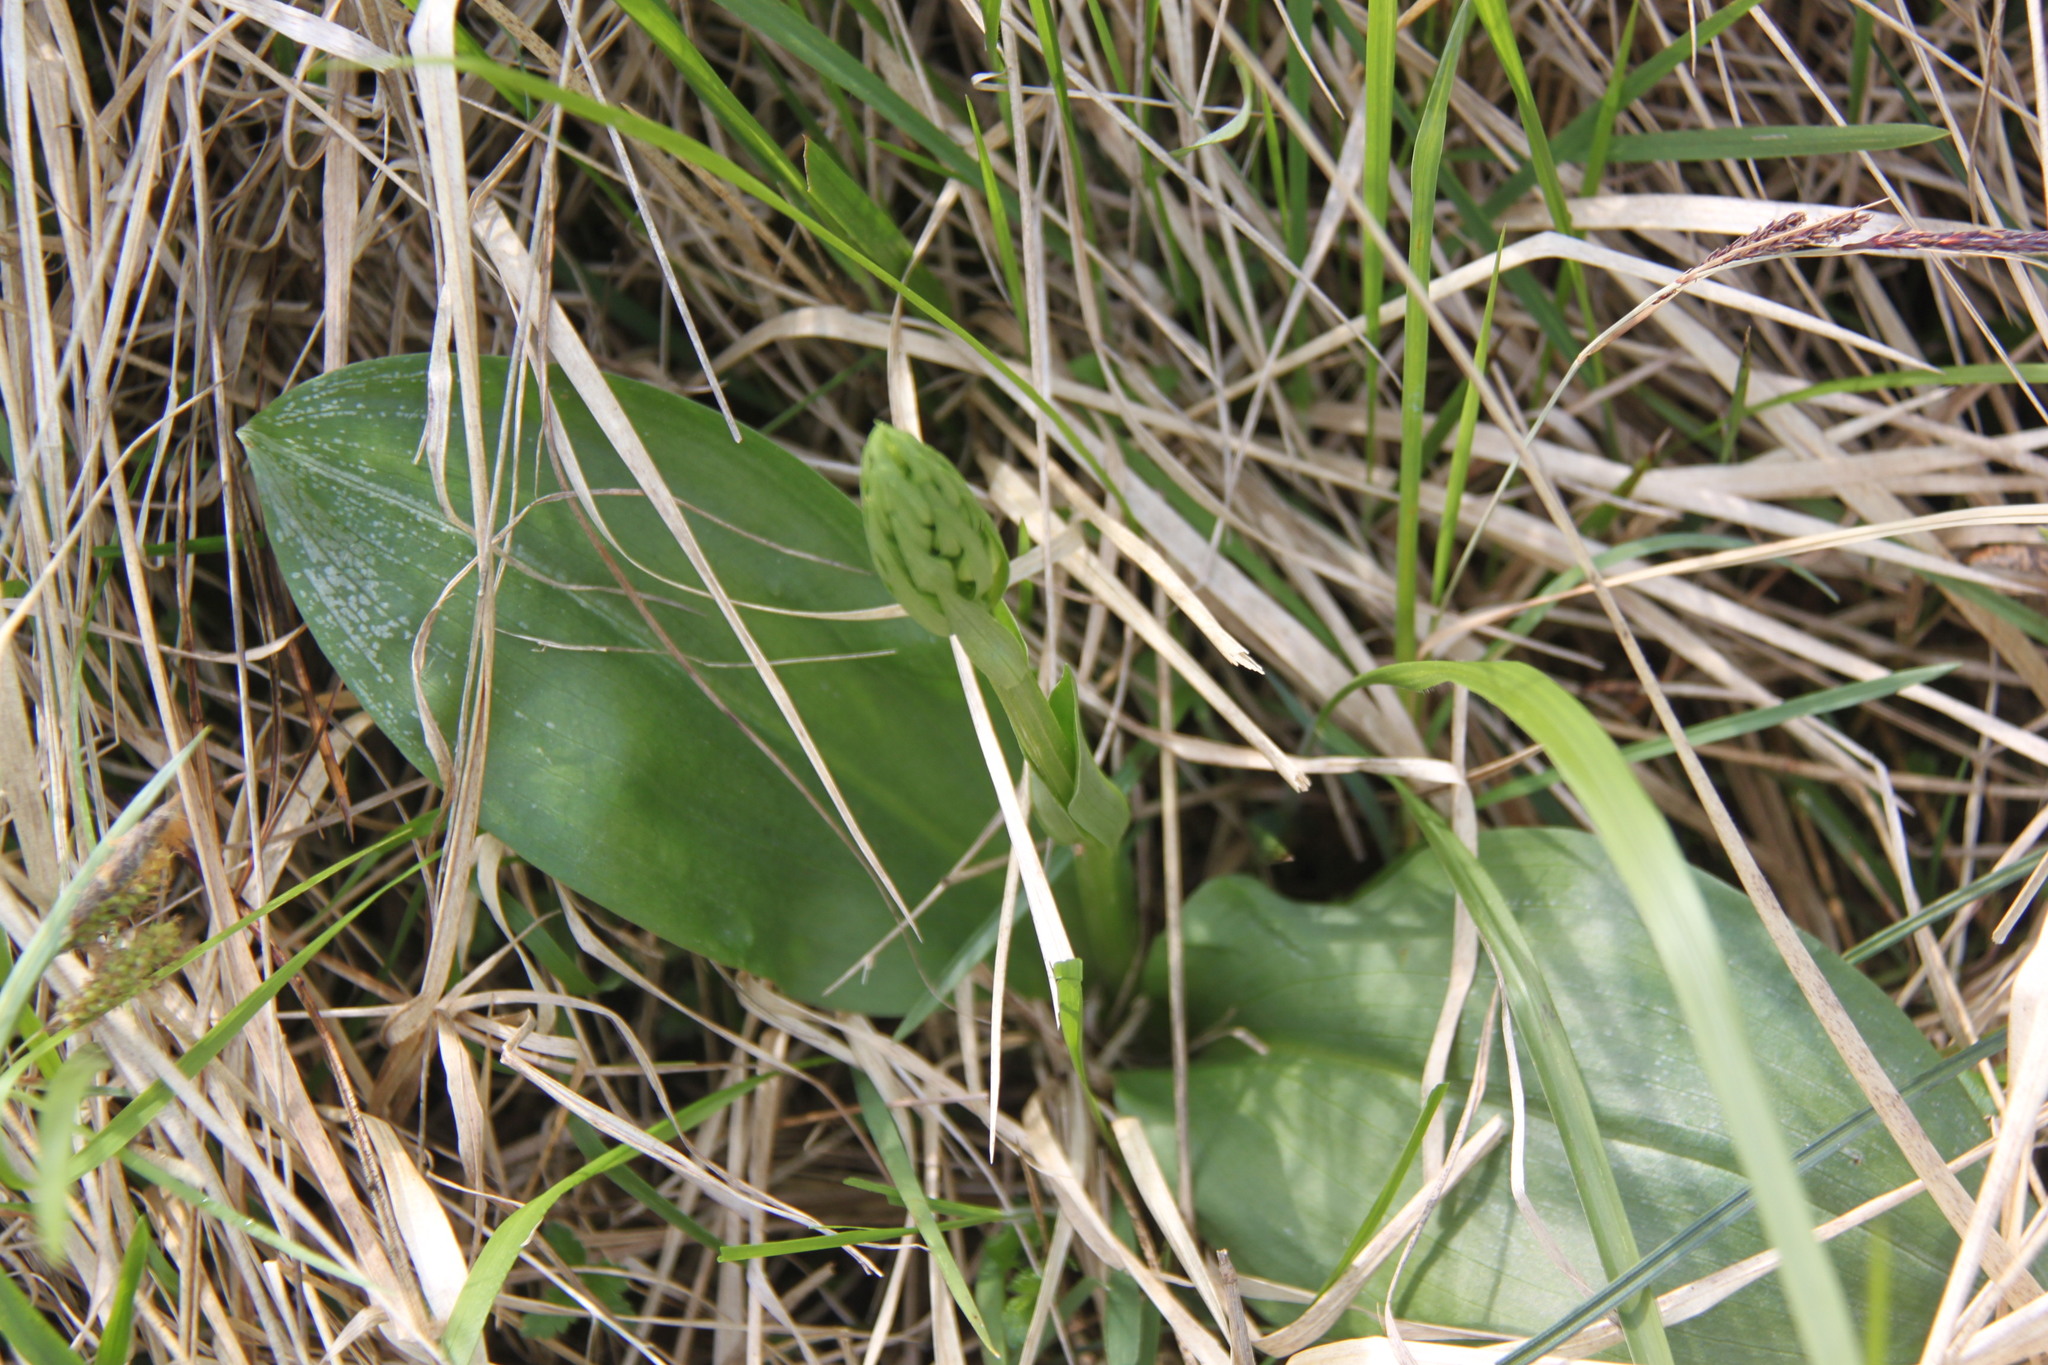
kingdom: Plantae
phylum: Tracheophyta
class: Liliopsida
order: Asparagales
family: Orchidaceae
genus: Neottia
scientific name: Neottia ovata
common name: Common twayblade
